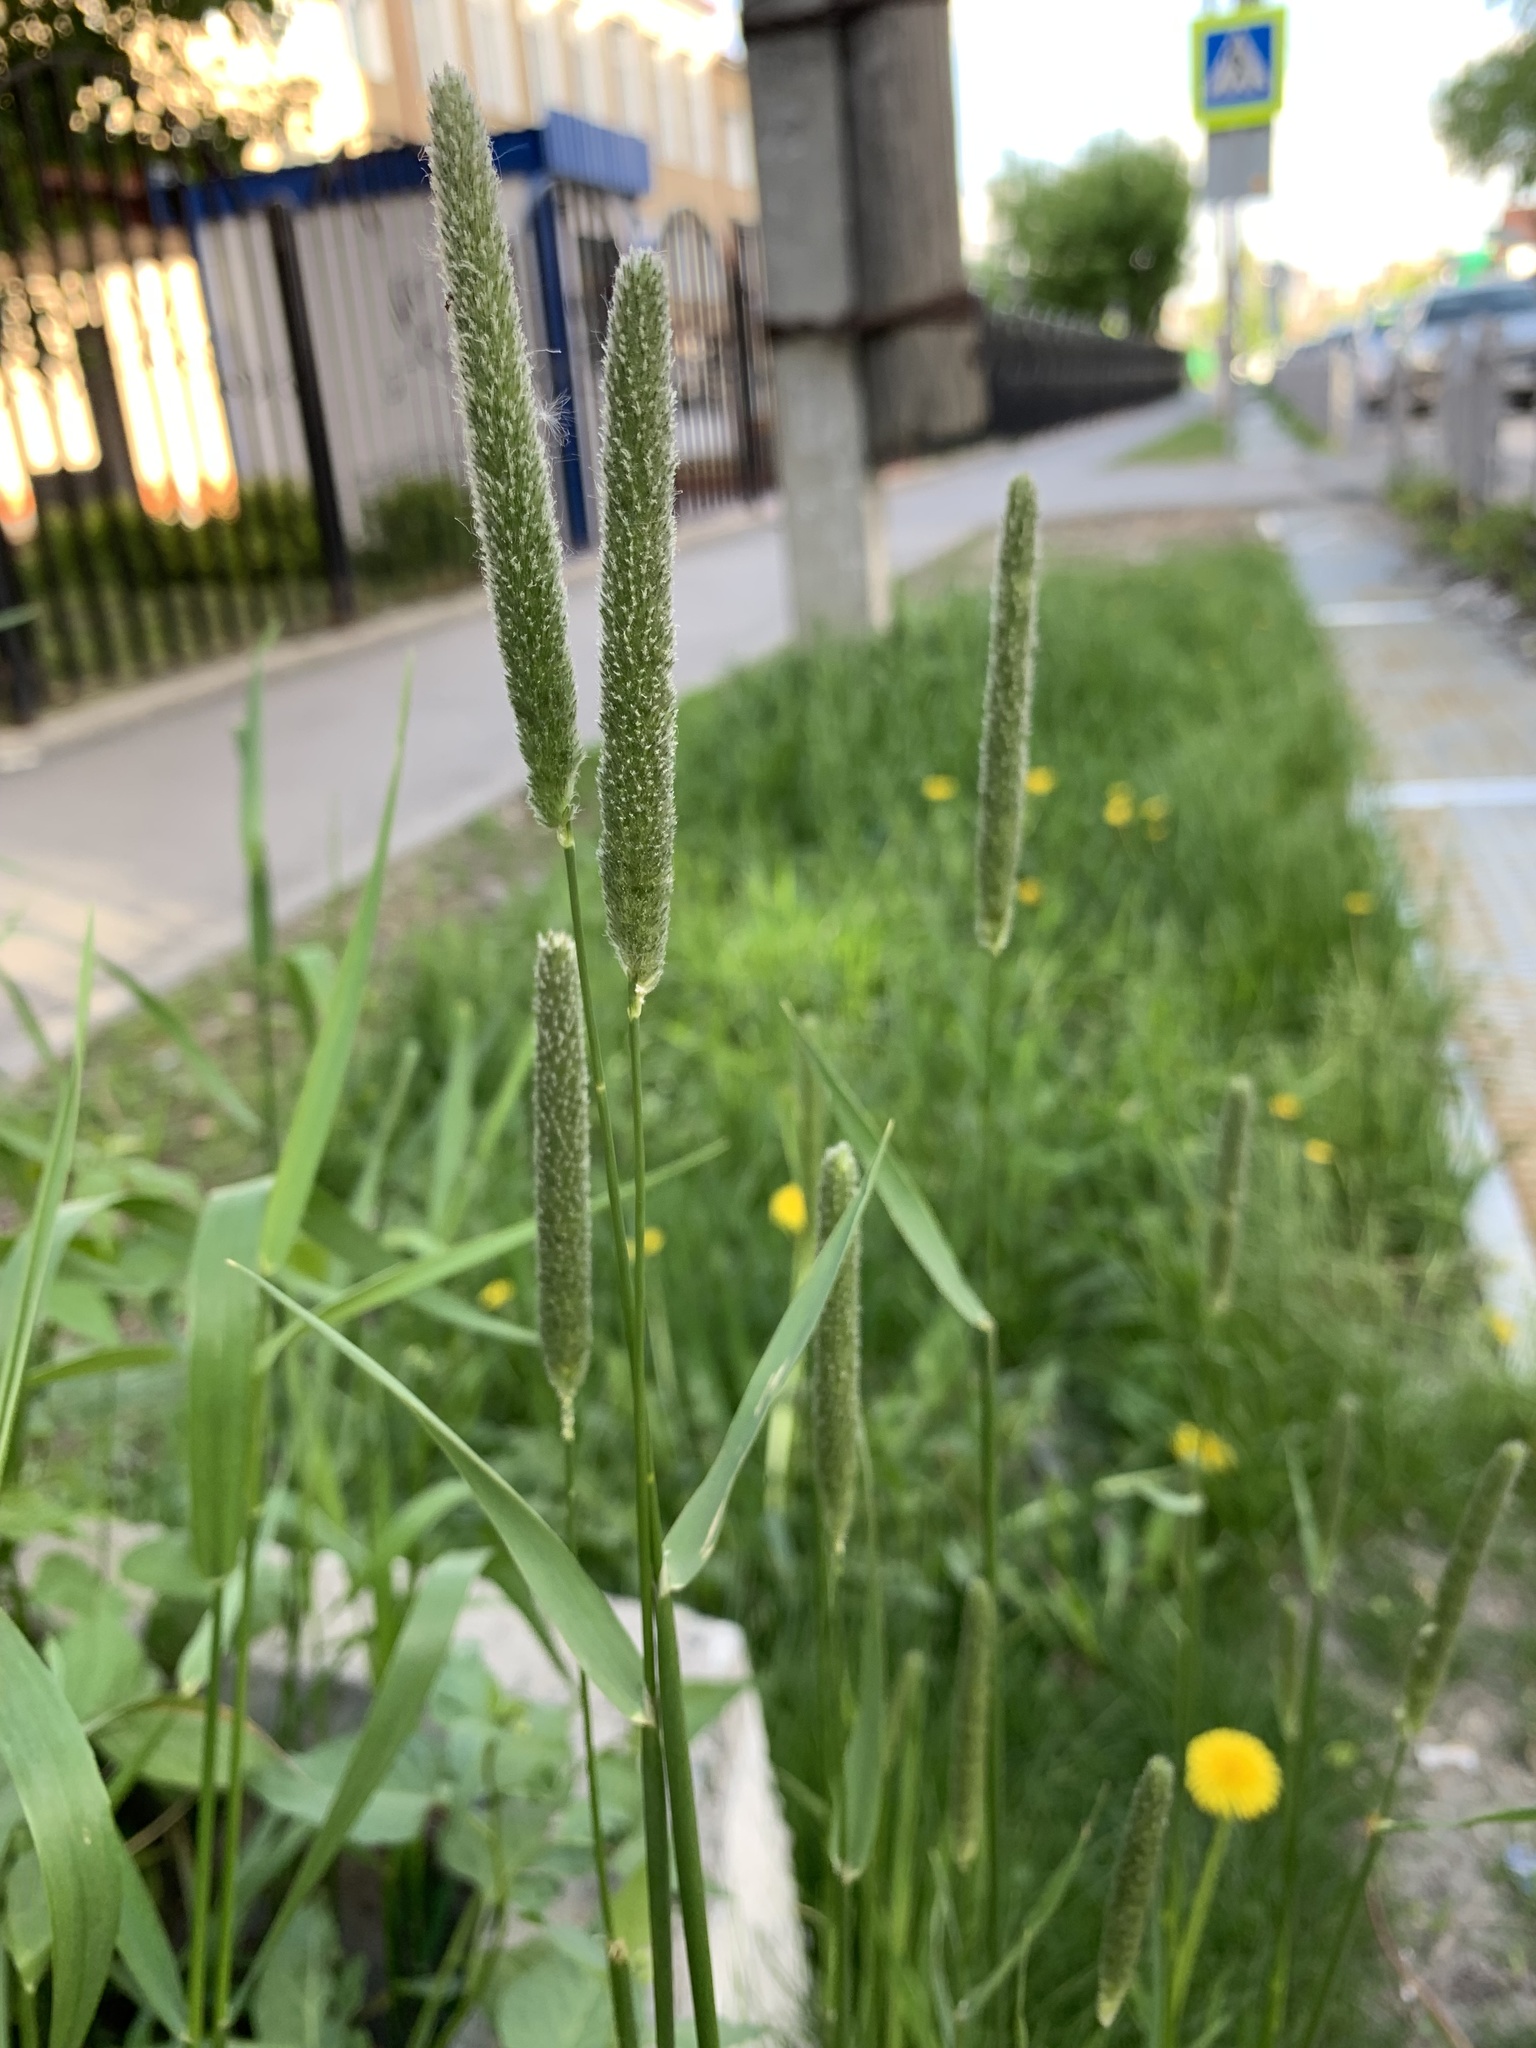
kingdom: Plantae
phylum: Tracheophyta
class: Liliopsida
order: Poales
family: Poaceae
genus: Alopecurus
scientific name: Alopecurus pratensis
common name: Meadow foxtail
